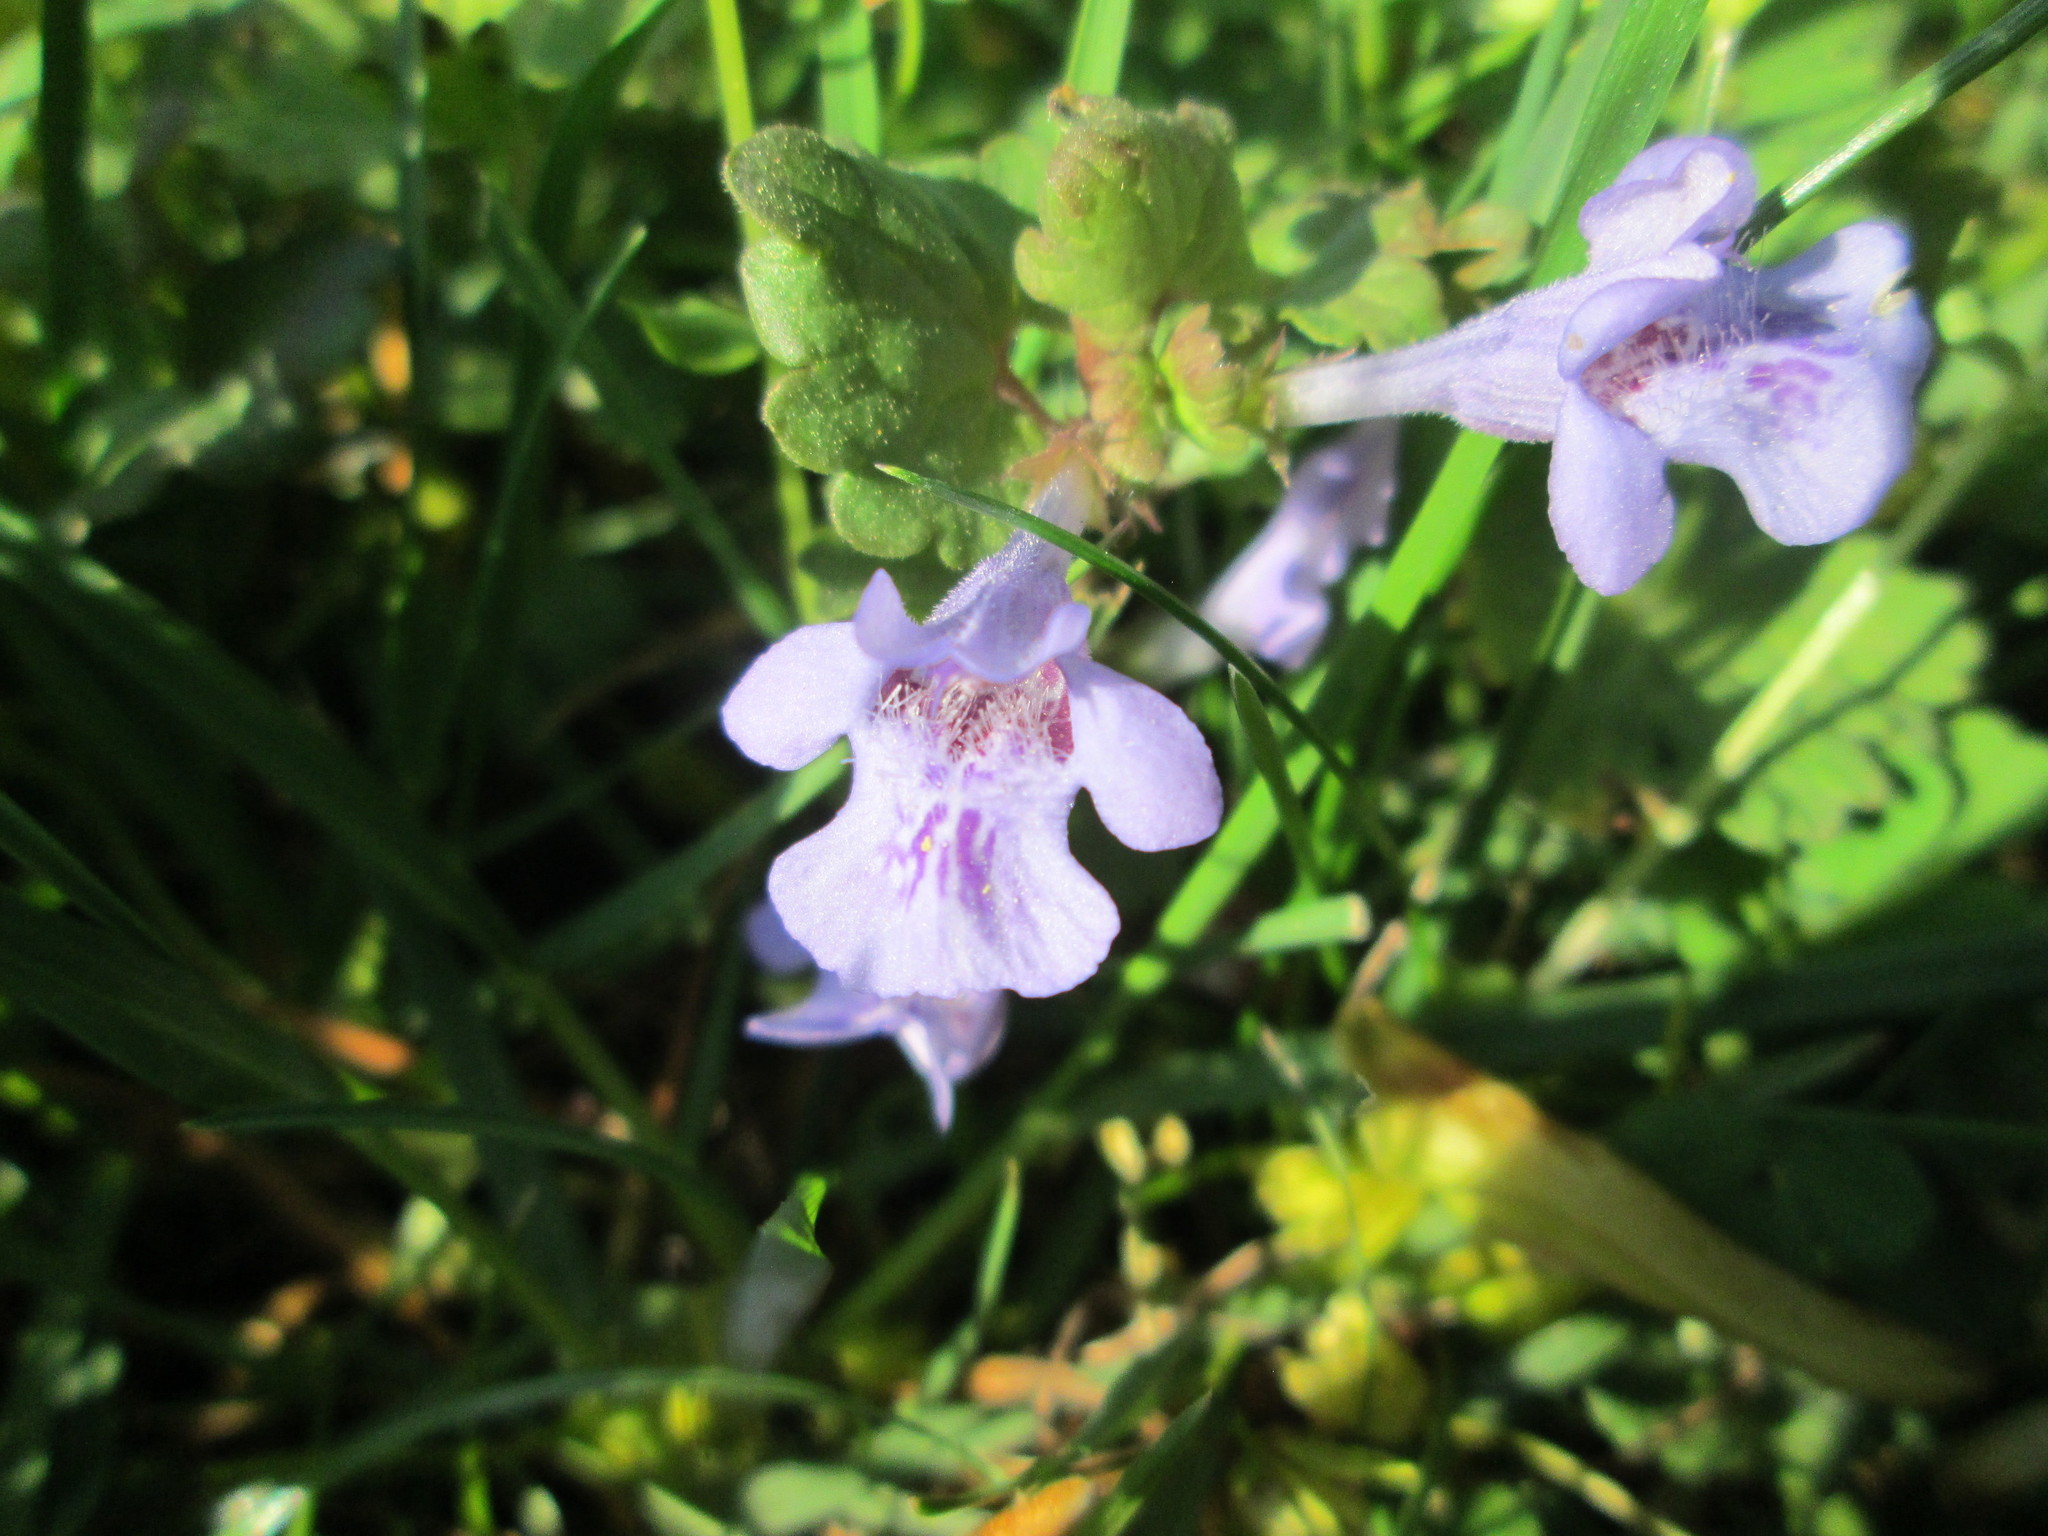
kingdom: Plantae
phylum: Tracheophyta
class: Magnoliopsida
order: Lamiales
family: Lamiaceae
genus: Glechoma
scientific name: Glechoma hederacea
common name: Ground ivy
